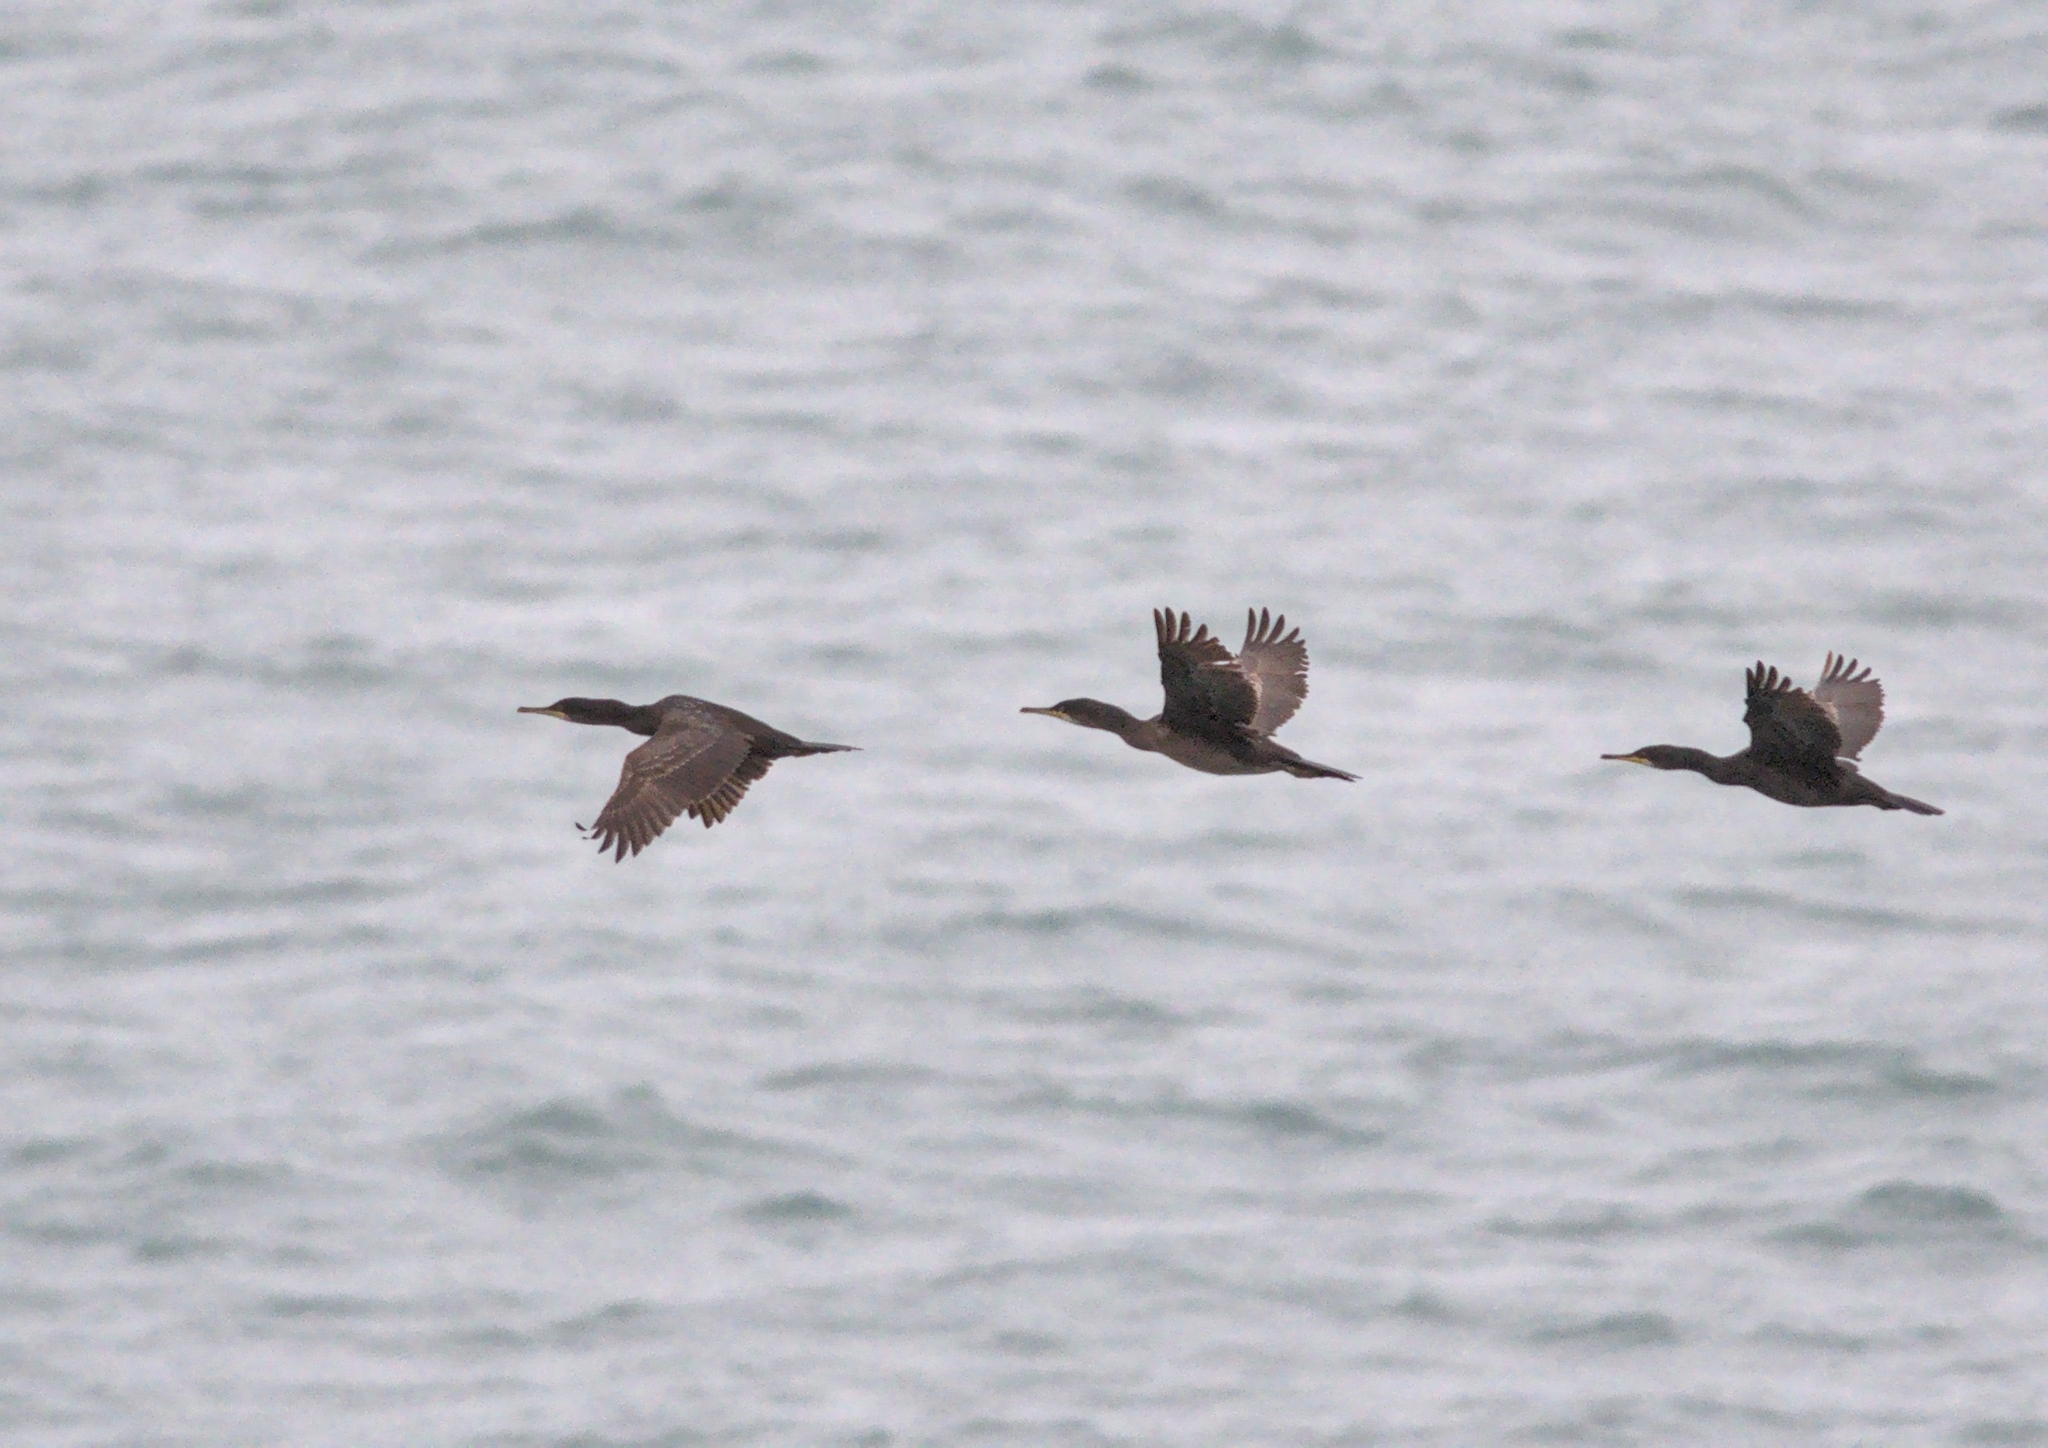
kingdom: Animalia
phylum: Chordata
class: Aves
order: Suliformes
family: Phalacrocoracidae
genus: Phalacrocorax
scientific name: Phalacrocorax aristotelis
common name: European shag
